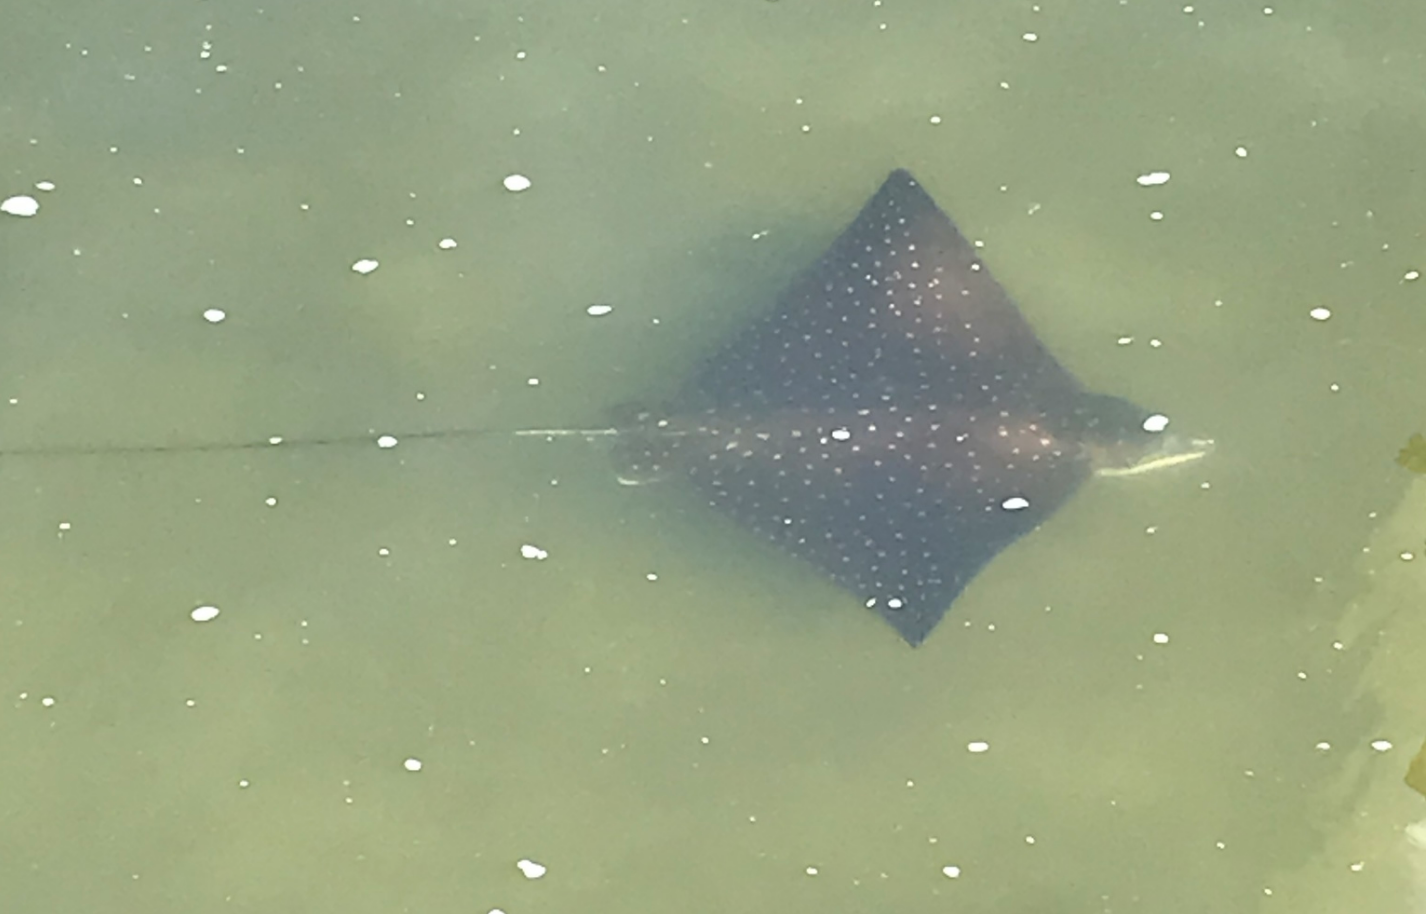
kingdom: Animalia
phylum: Chordata
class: Elasmobranchii
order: Myliobatiformes
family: Myliobatidae
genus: Aetobatus
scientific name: Aetobatus narinari
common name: Spotted eagle ray
